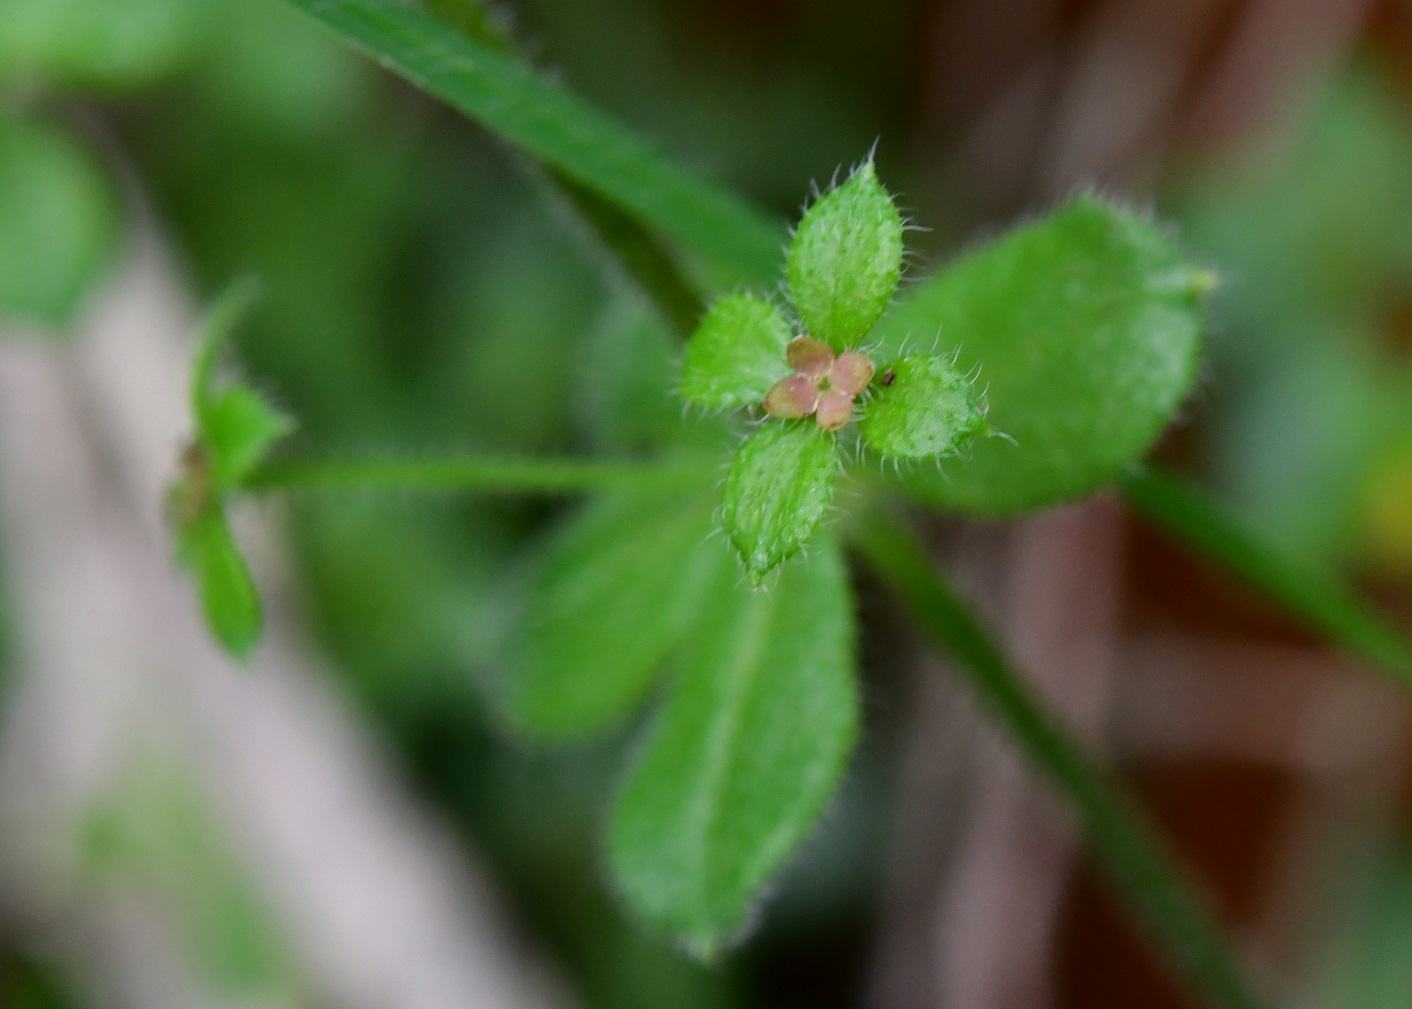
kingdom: Plantae
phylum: Tracheophyta
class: Magnoliopsida
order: Gentianales
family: Rubiaceae
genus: Galium
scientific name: Galium hypocarpium
